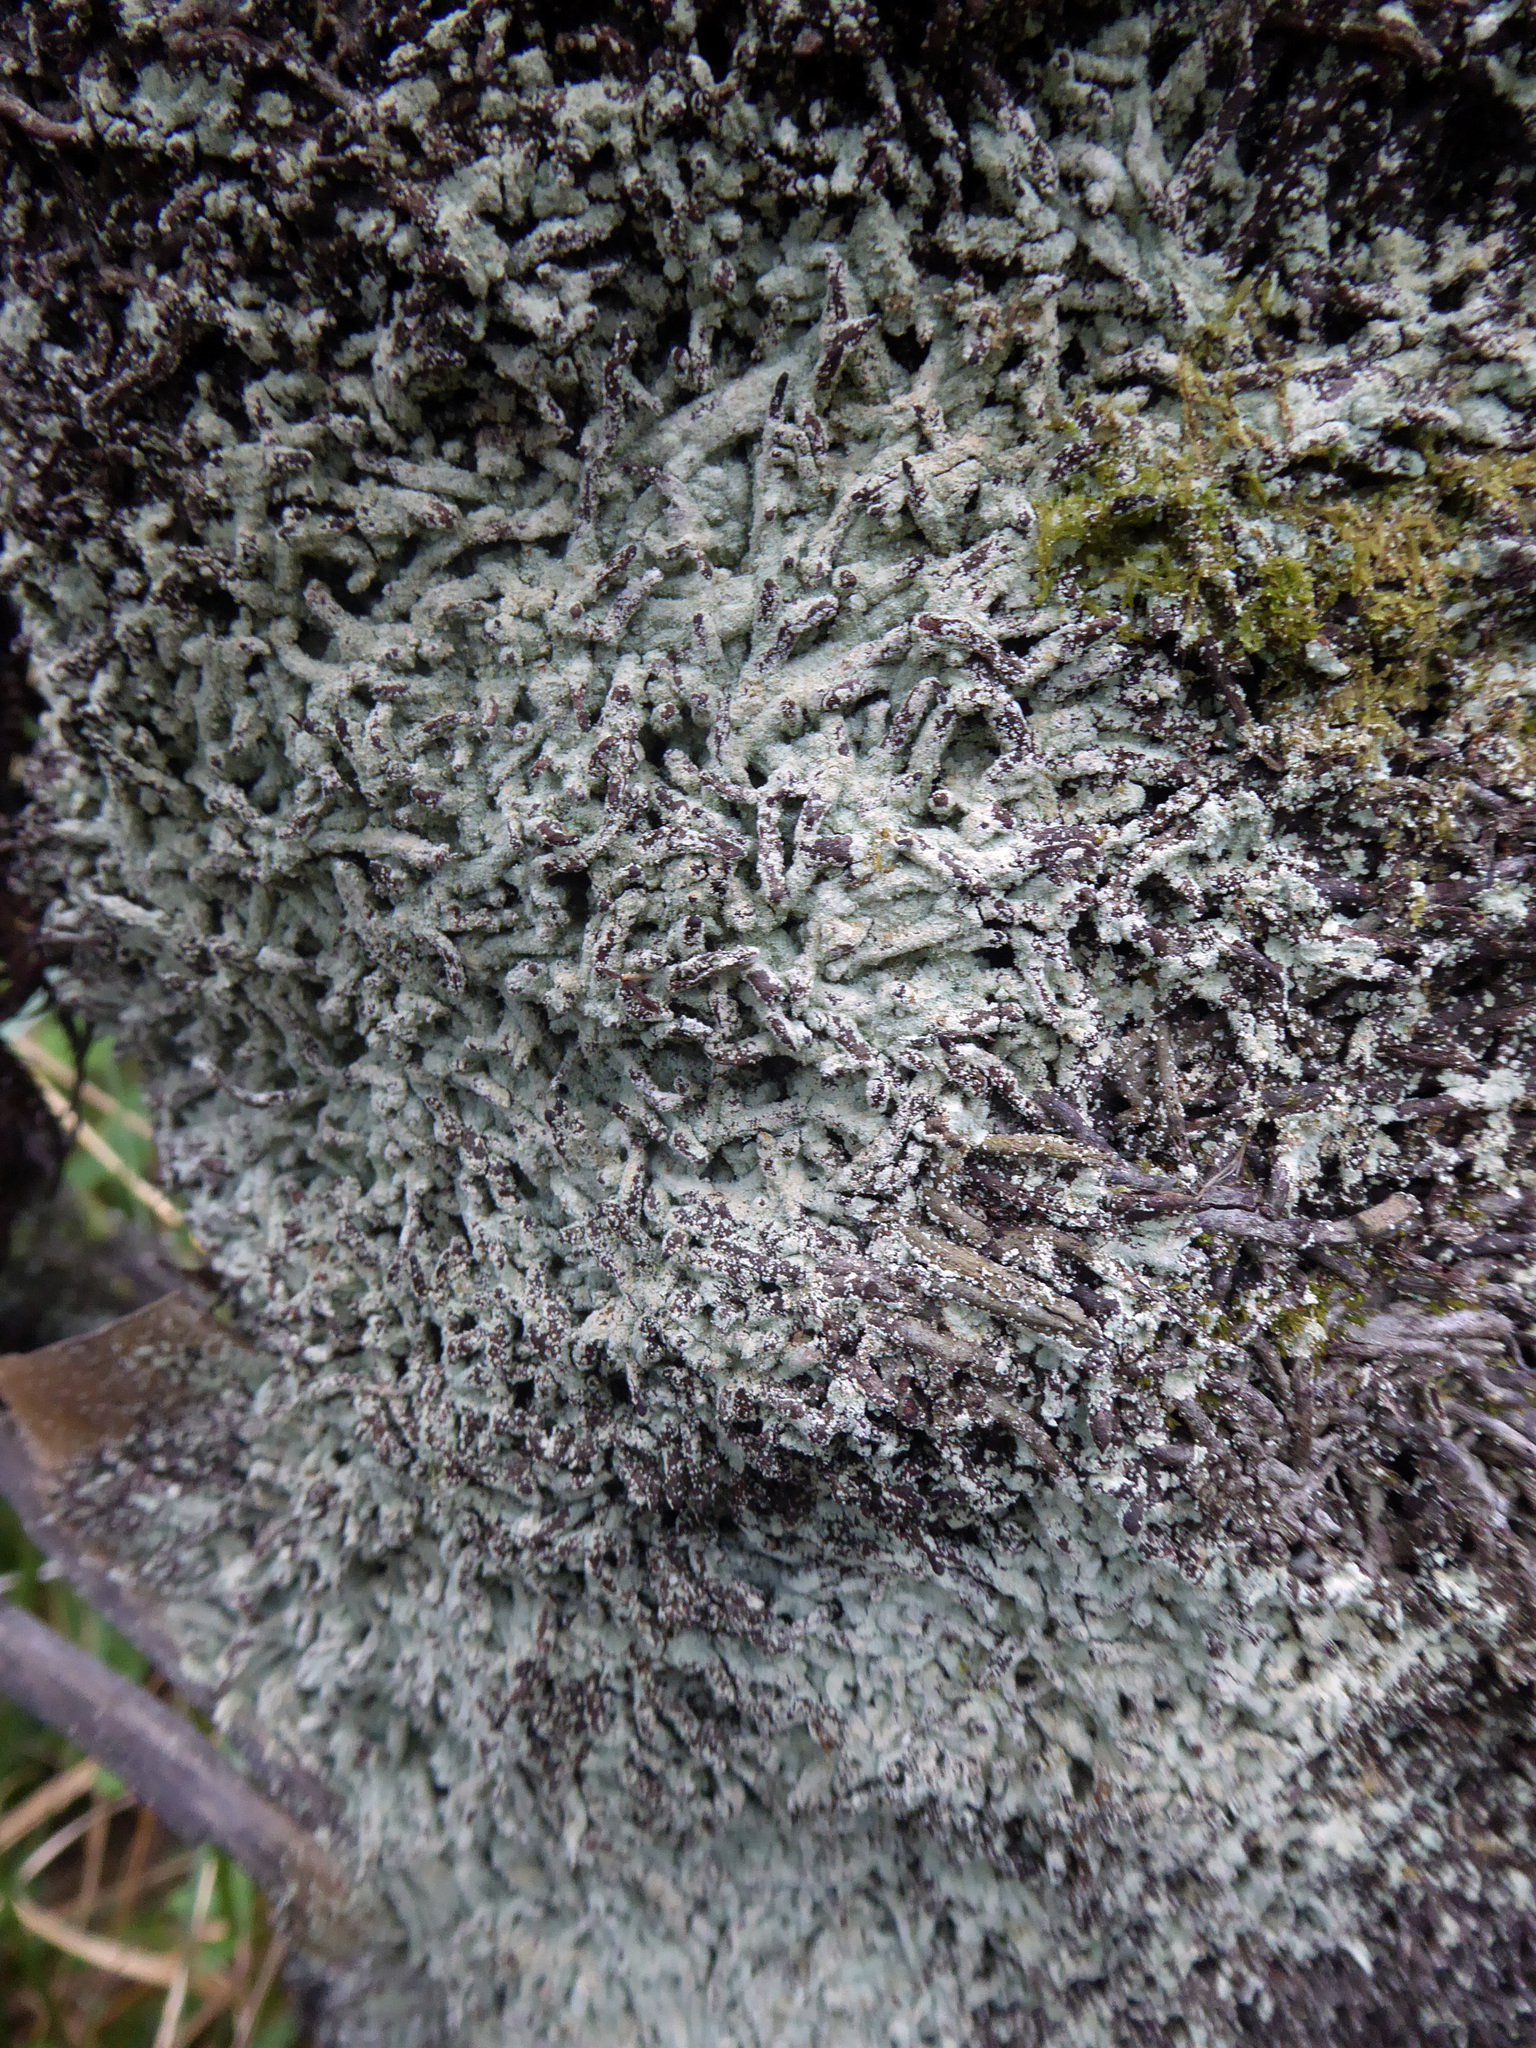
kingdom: Fungi
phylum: Ascomycota
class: Lecanoromycetes
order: Lecanorales
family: Stereocaulaceae
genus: Lepraria
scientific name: Lepraria lobificans
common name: Fluffy dust lichen
